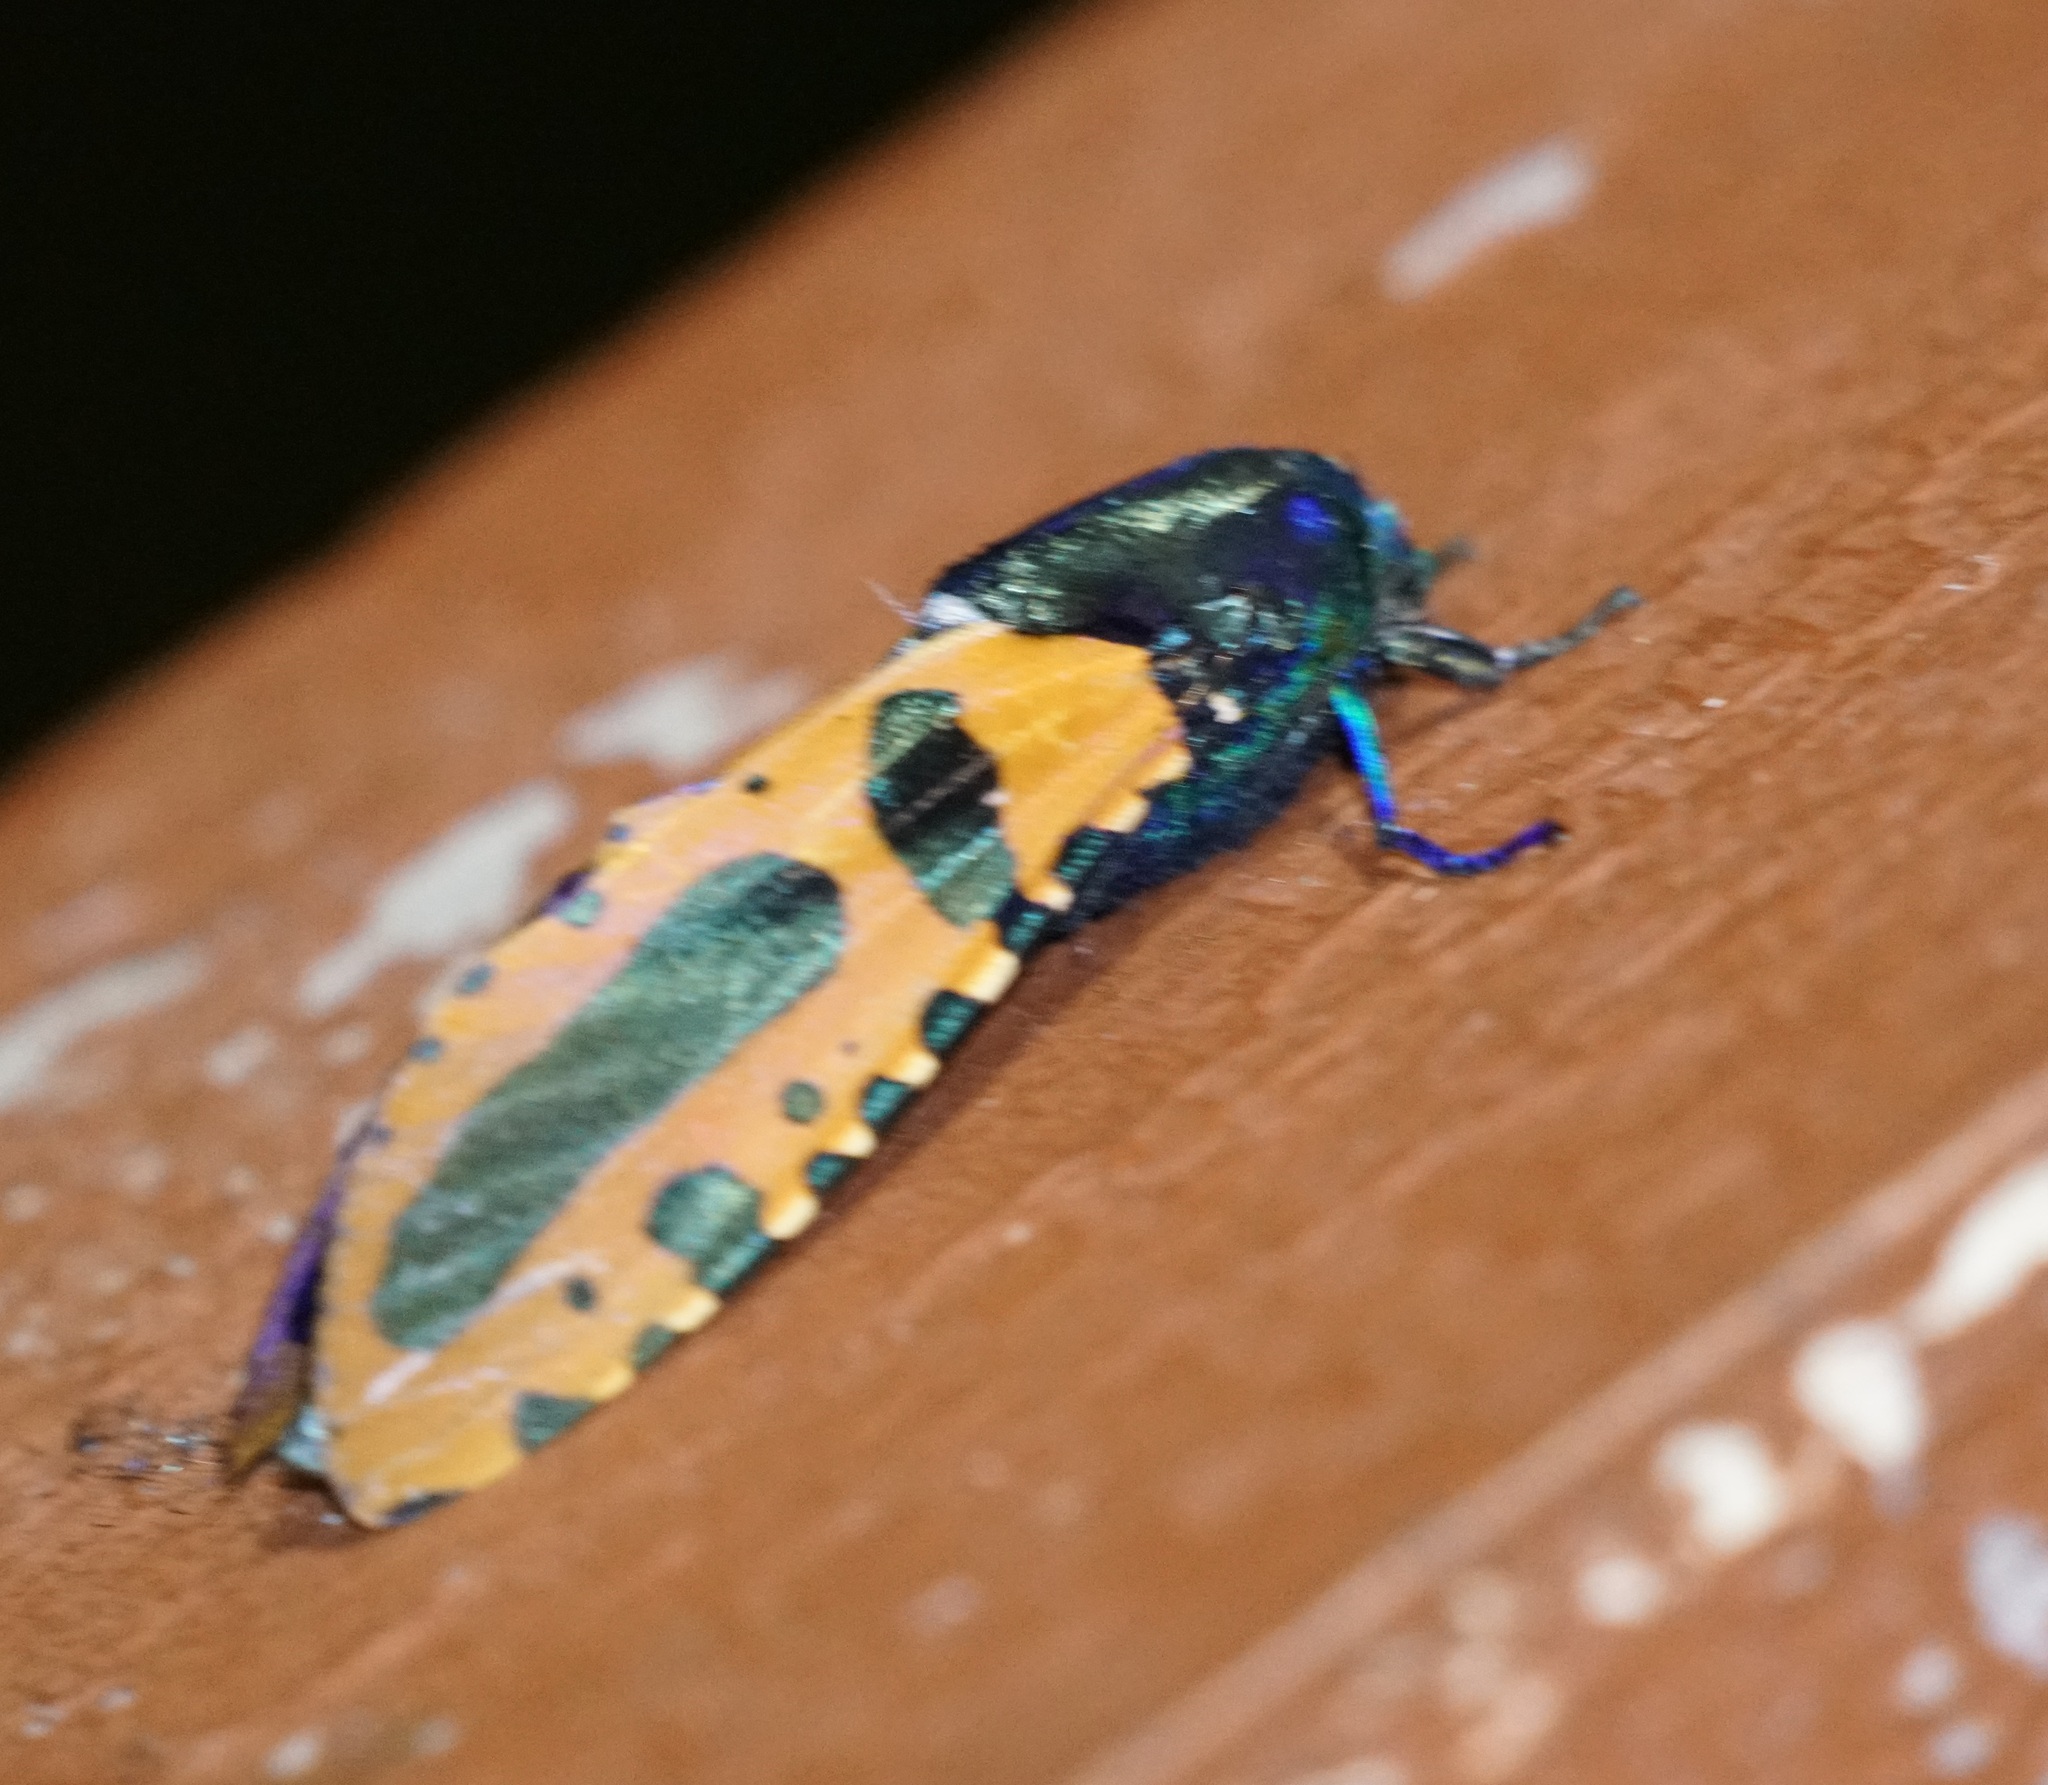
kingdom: Animalia
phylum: Arthropoda
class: Insecta
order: Lepidoptera
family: Cossidae
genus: Chalcidica
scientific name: Chalcidica minea
